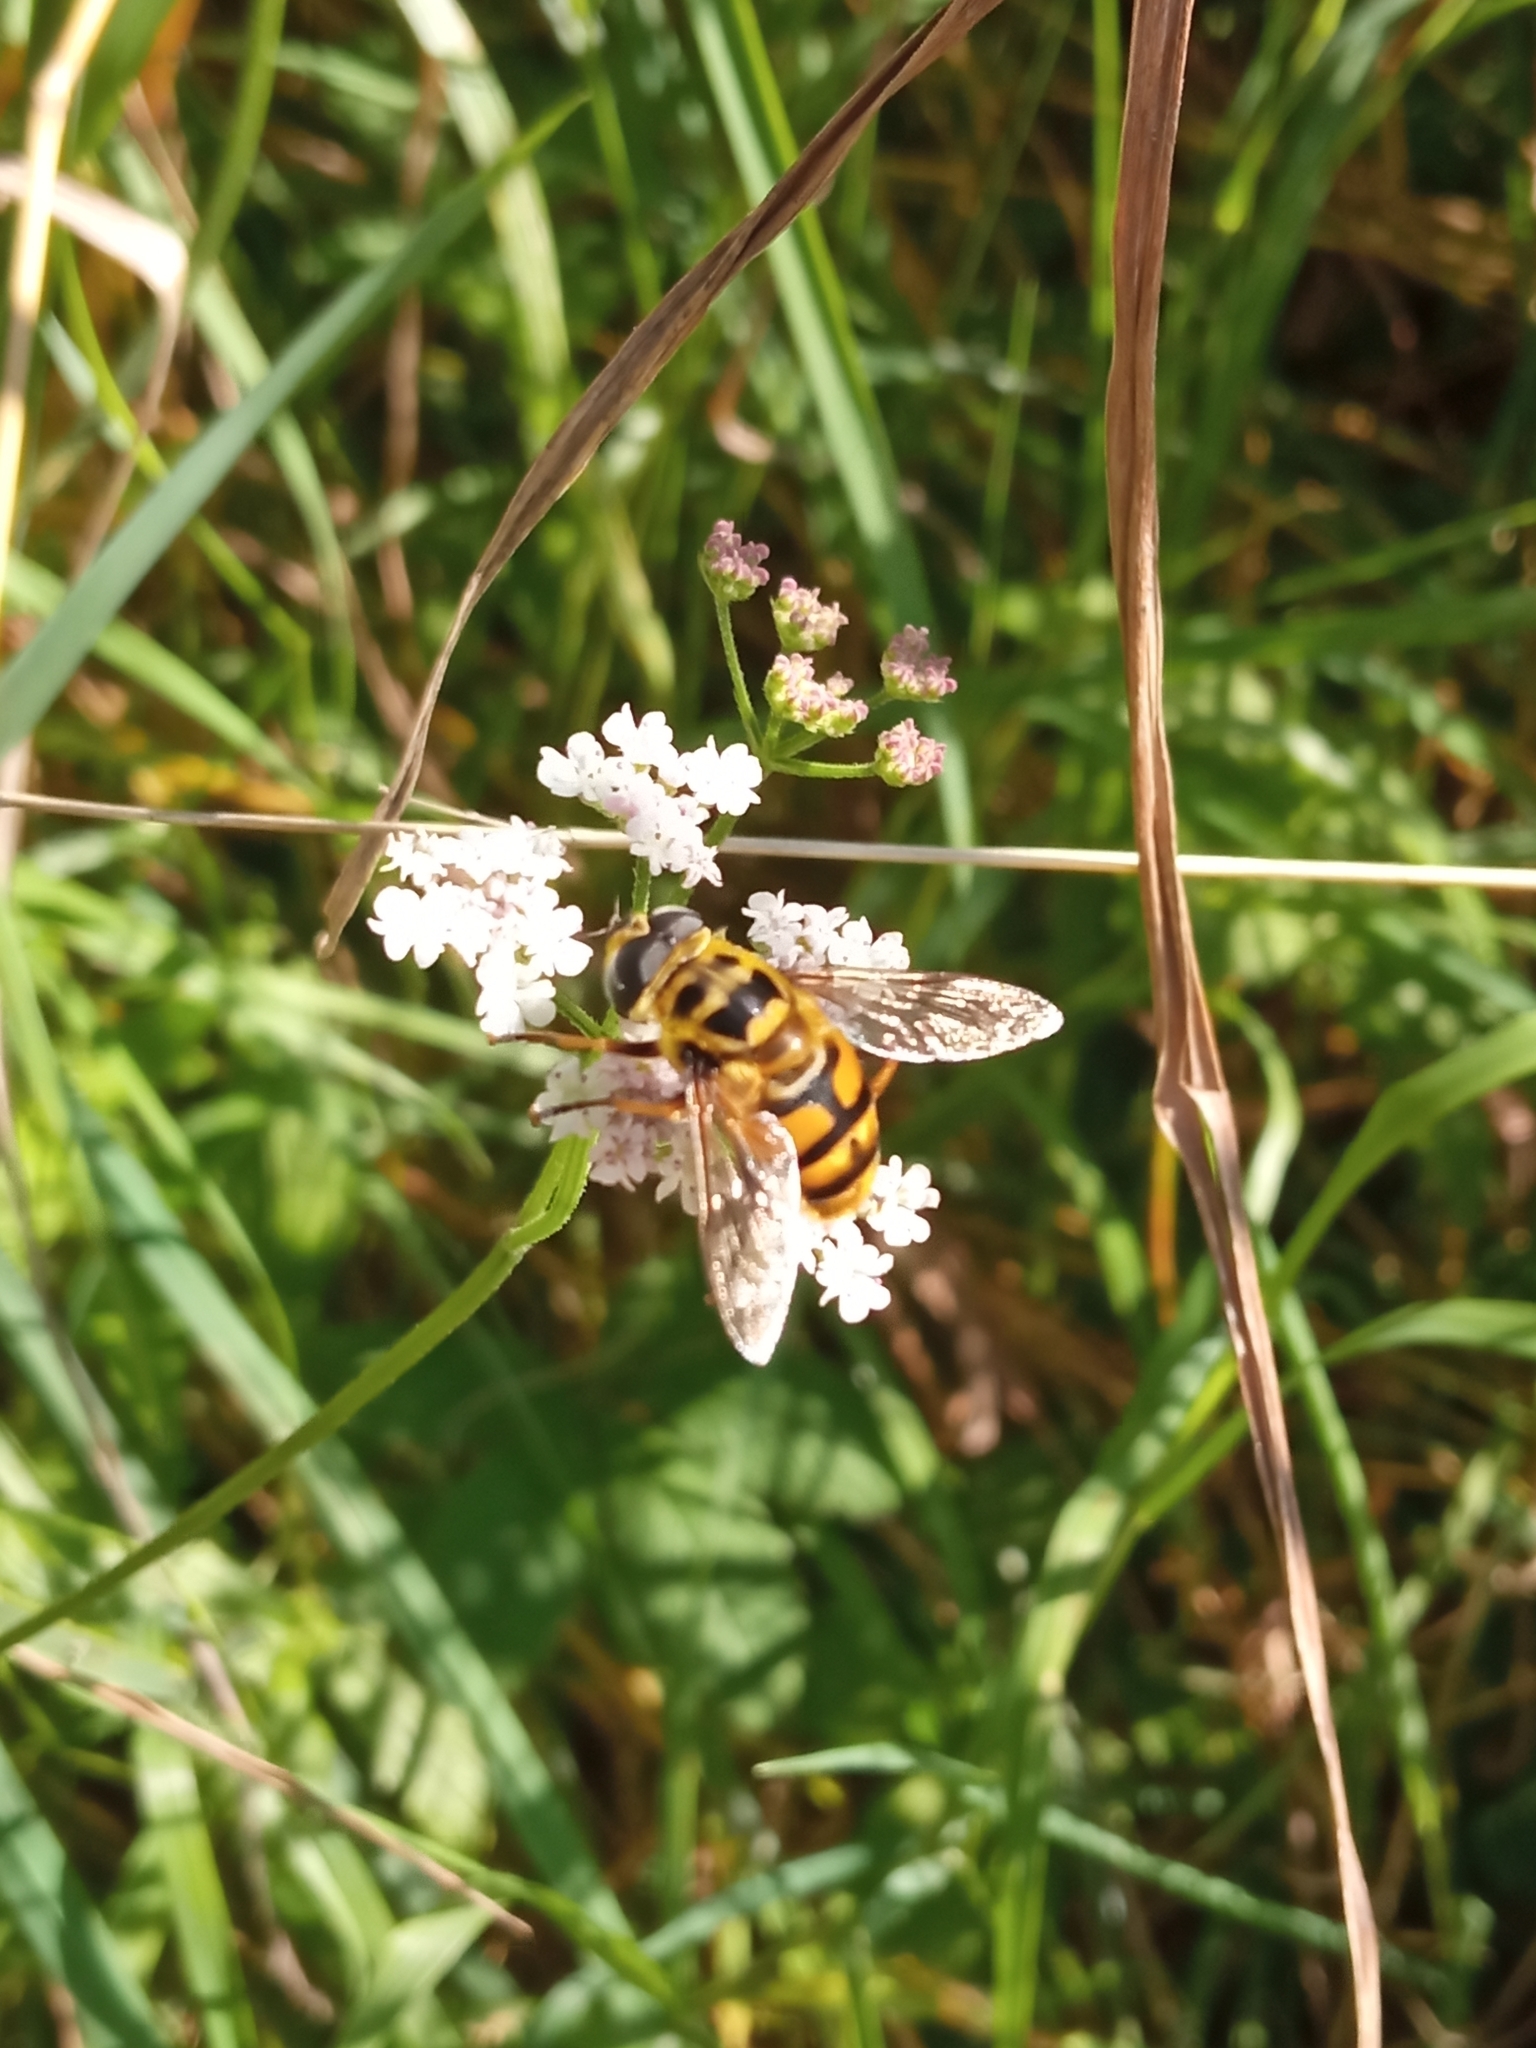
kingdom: Animalia
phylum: Arthropoda
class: Insecta
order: Diptera
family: Syrphidae
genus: Myathropa
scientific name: Myathropa florea
